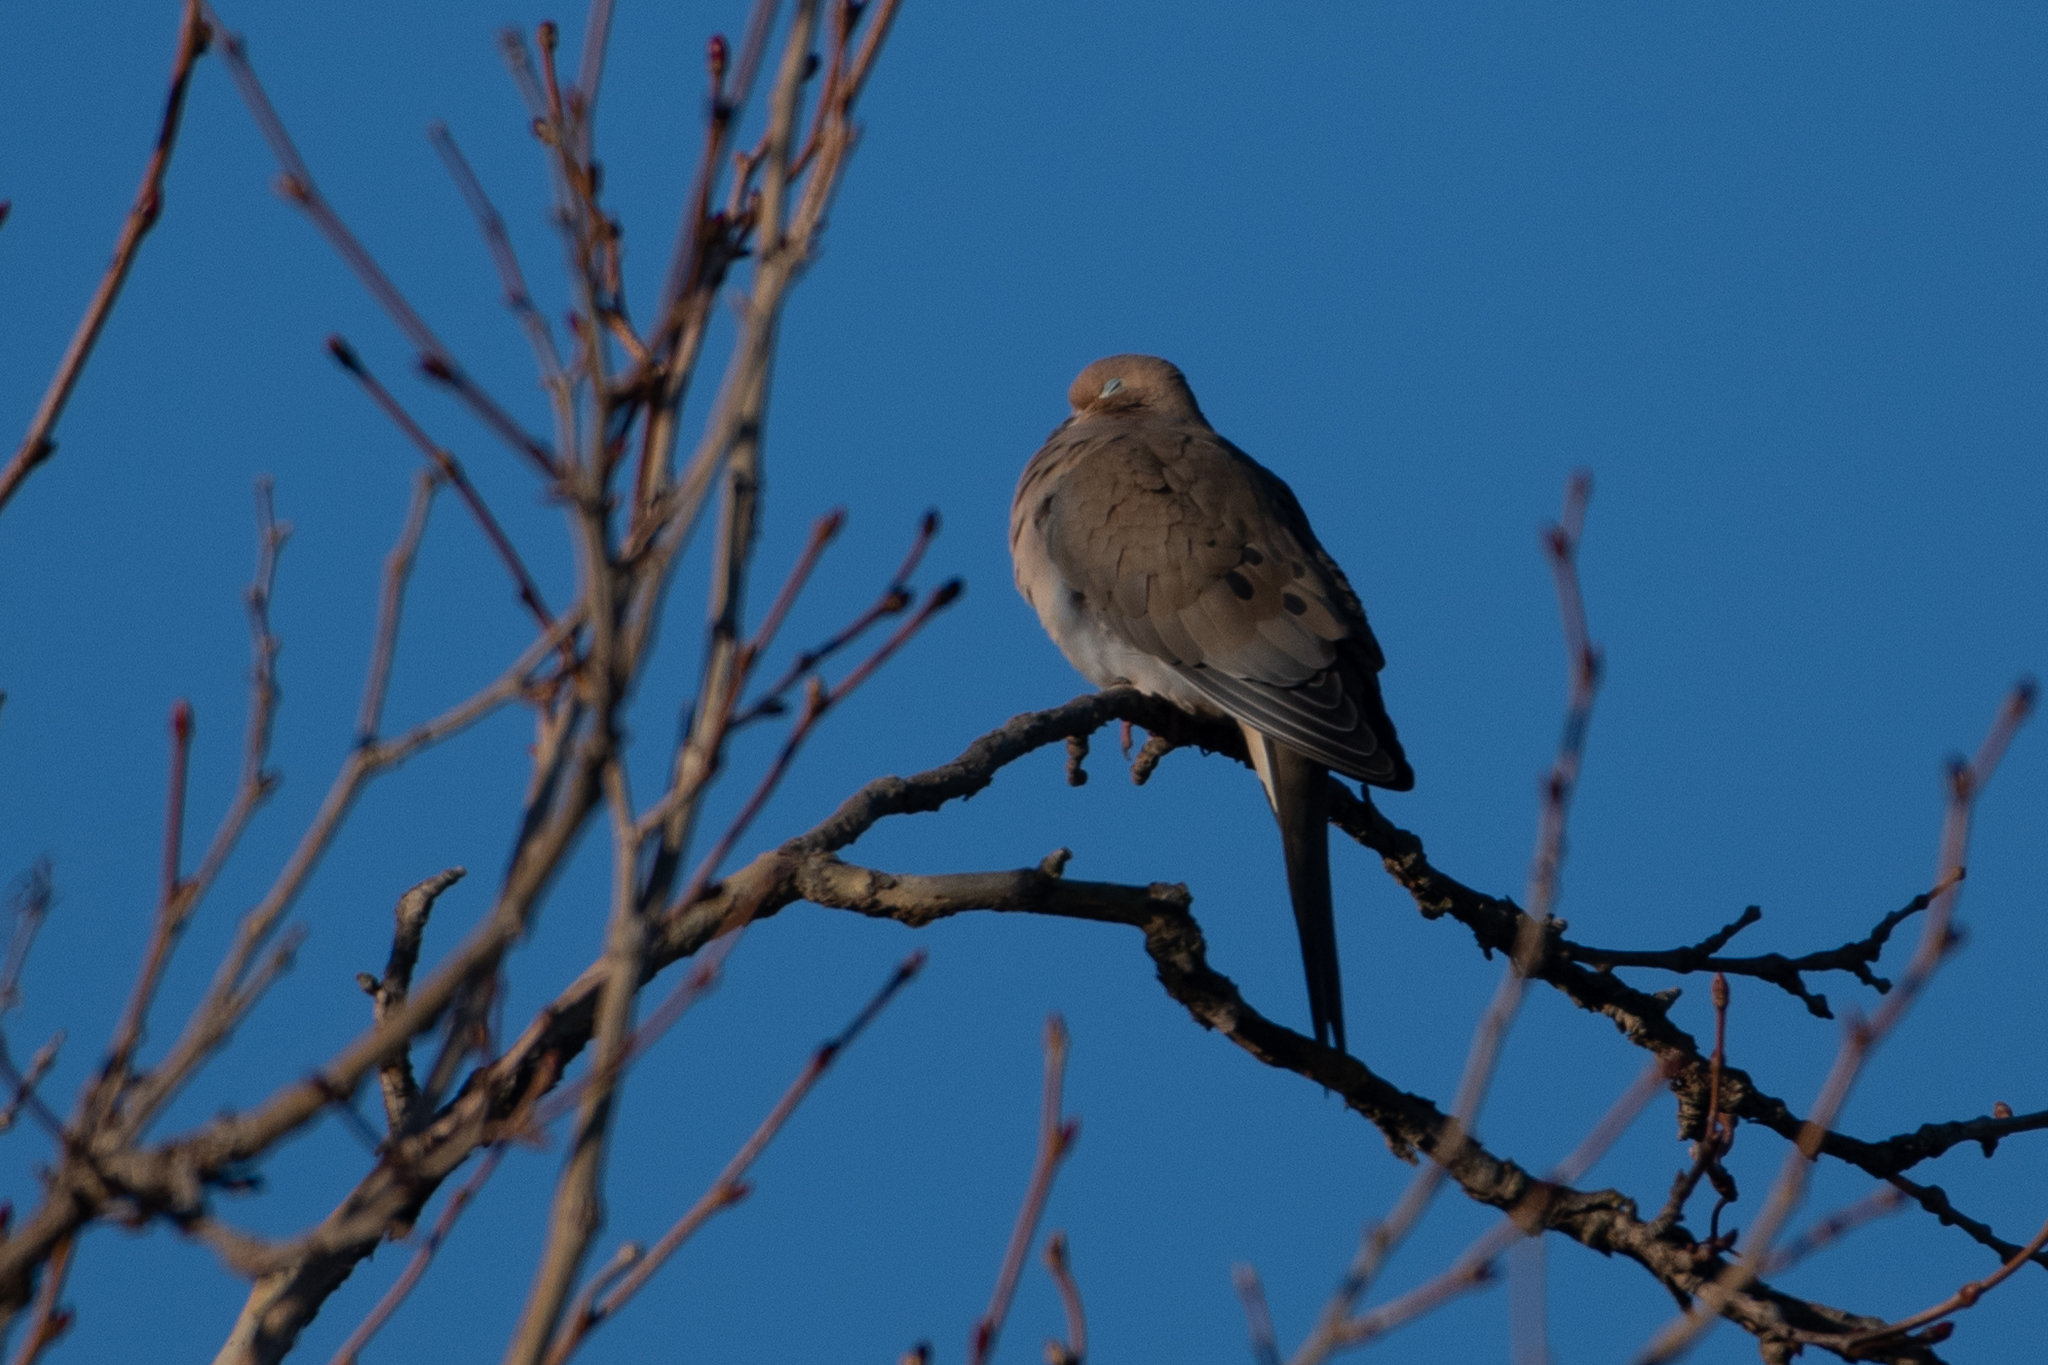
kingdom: Animalia
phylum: Chordata
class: Aves
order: Columbiformes
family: Columbidae
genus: Zenaida
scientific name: Zenaida macroura
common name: Mourning dove
